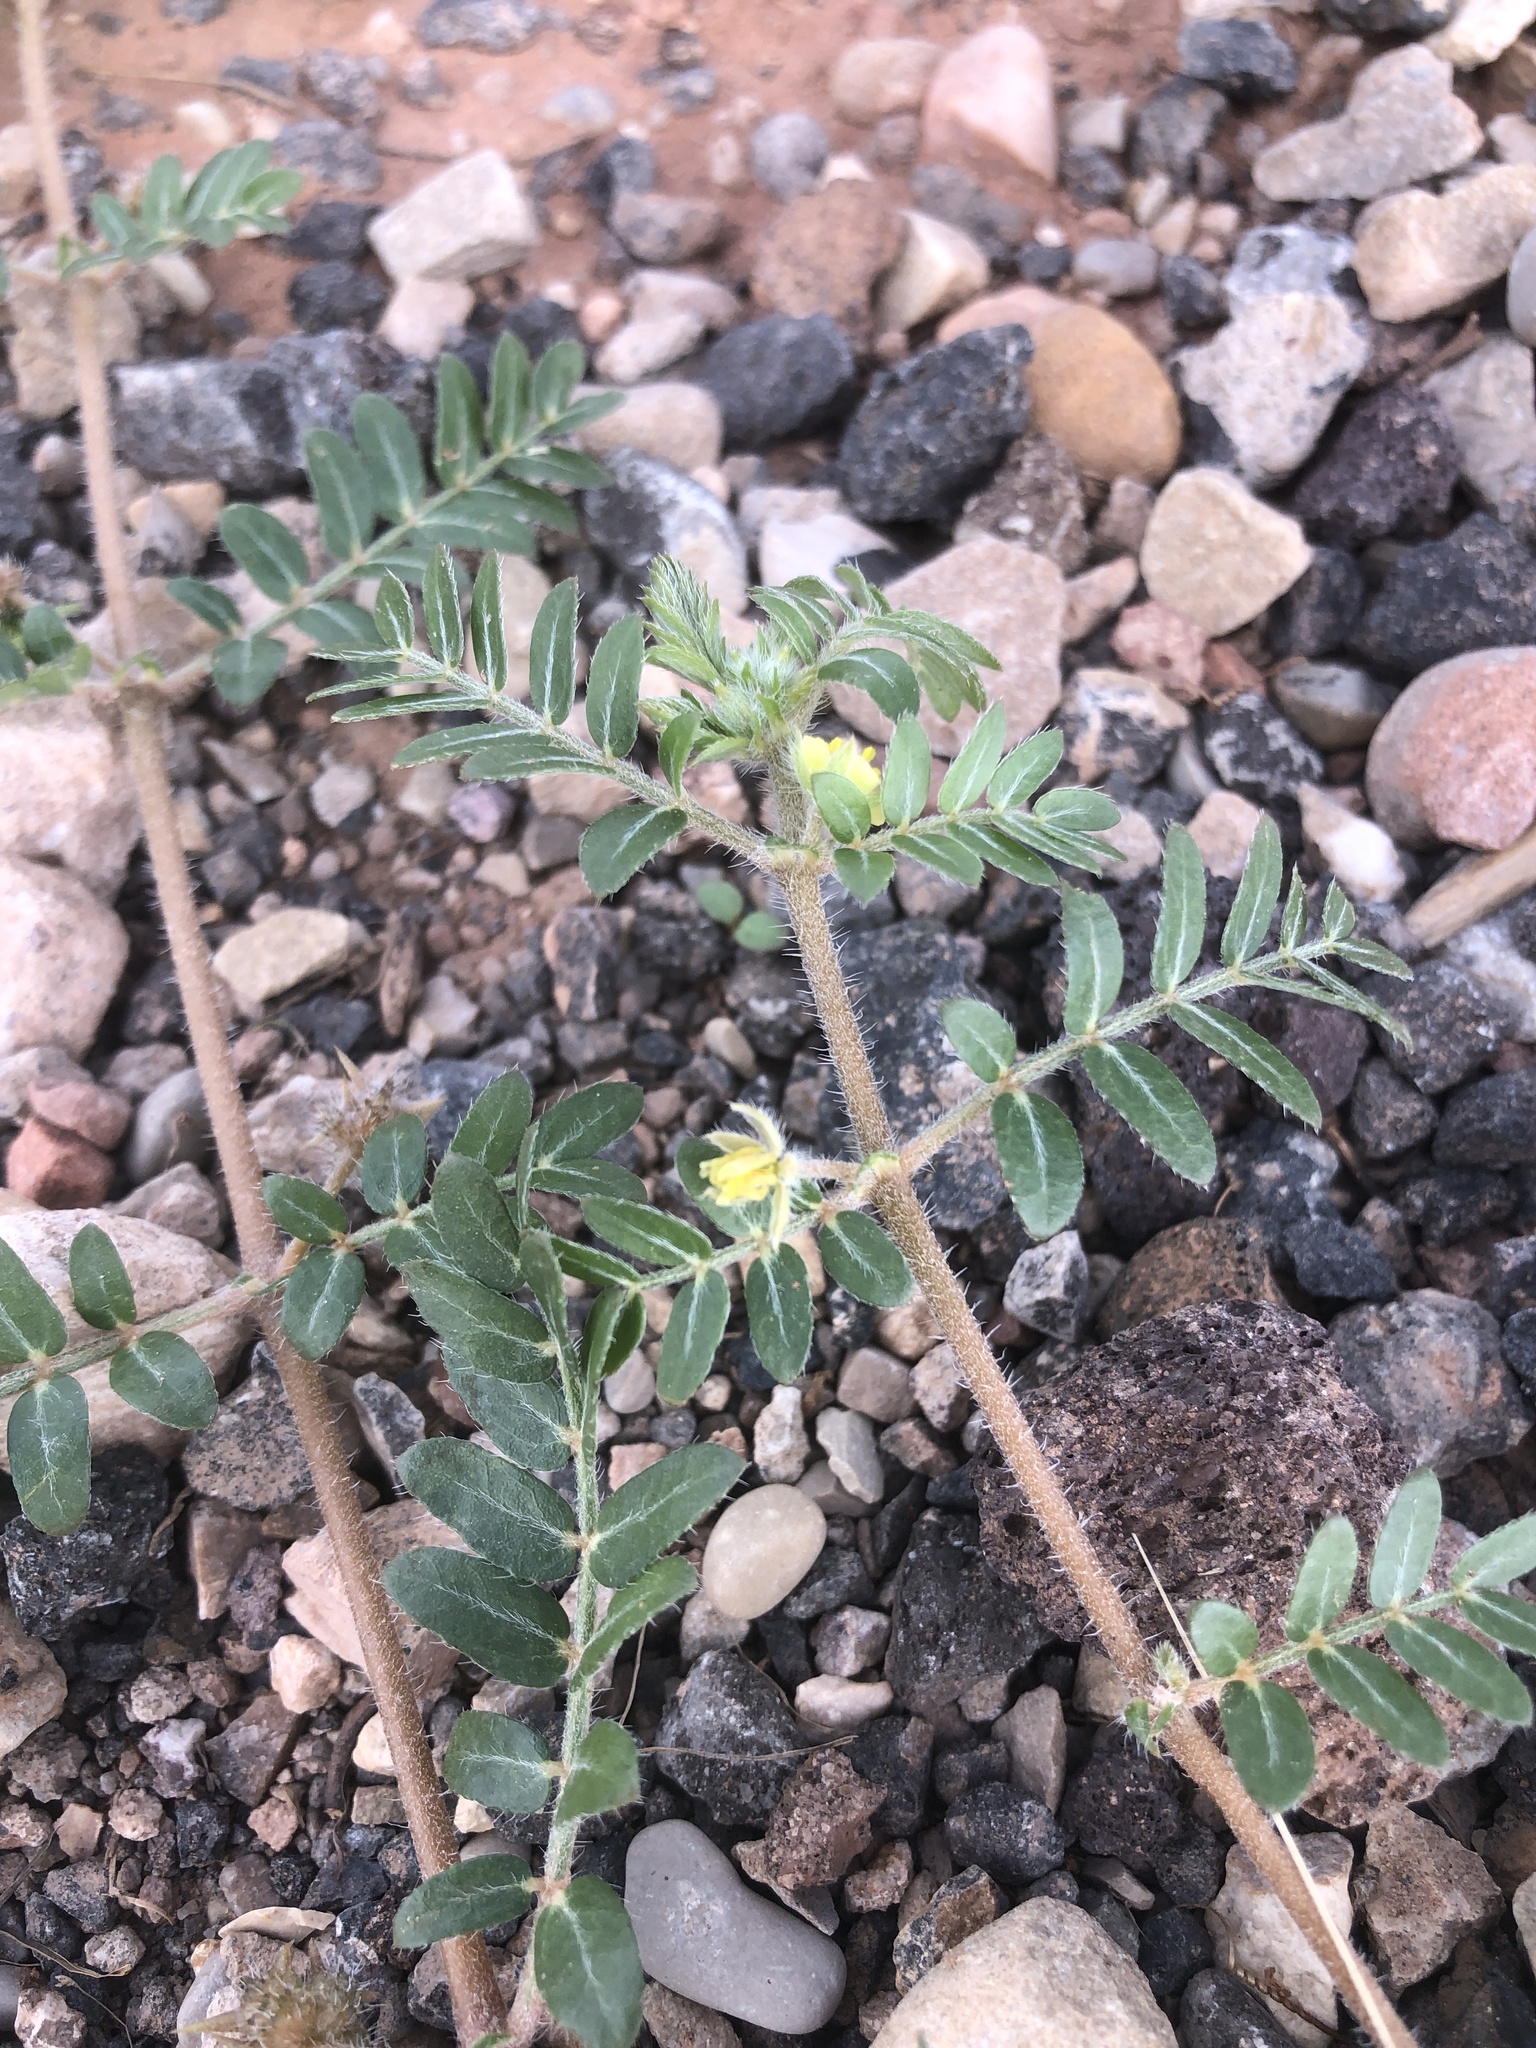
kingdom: Plantae
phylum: Tracheophyta
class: Magnoliopsida
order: Zygophyllales
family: Zygophyllaceae
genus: Tribulus
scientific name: Tribulus terrestris
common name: Puncturevine
